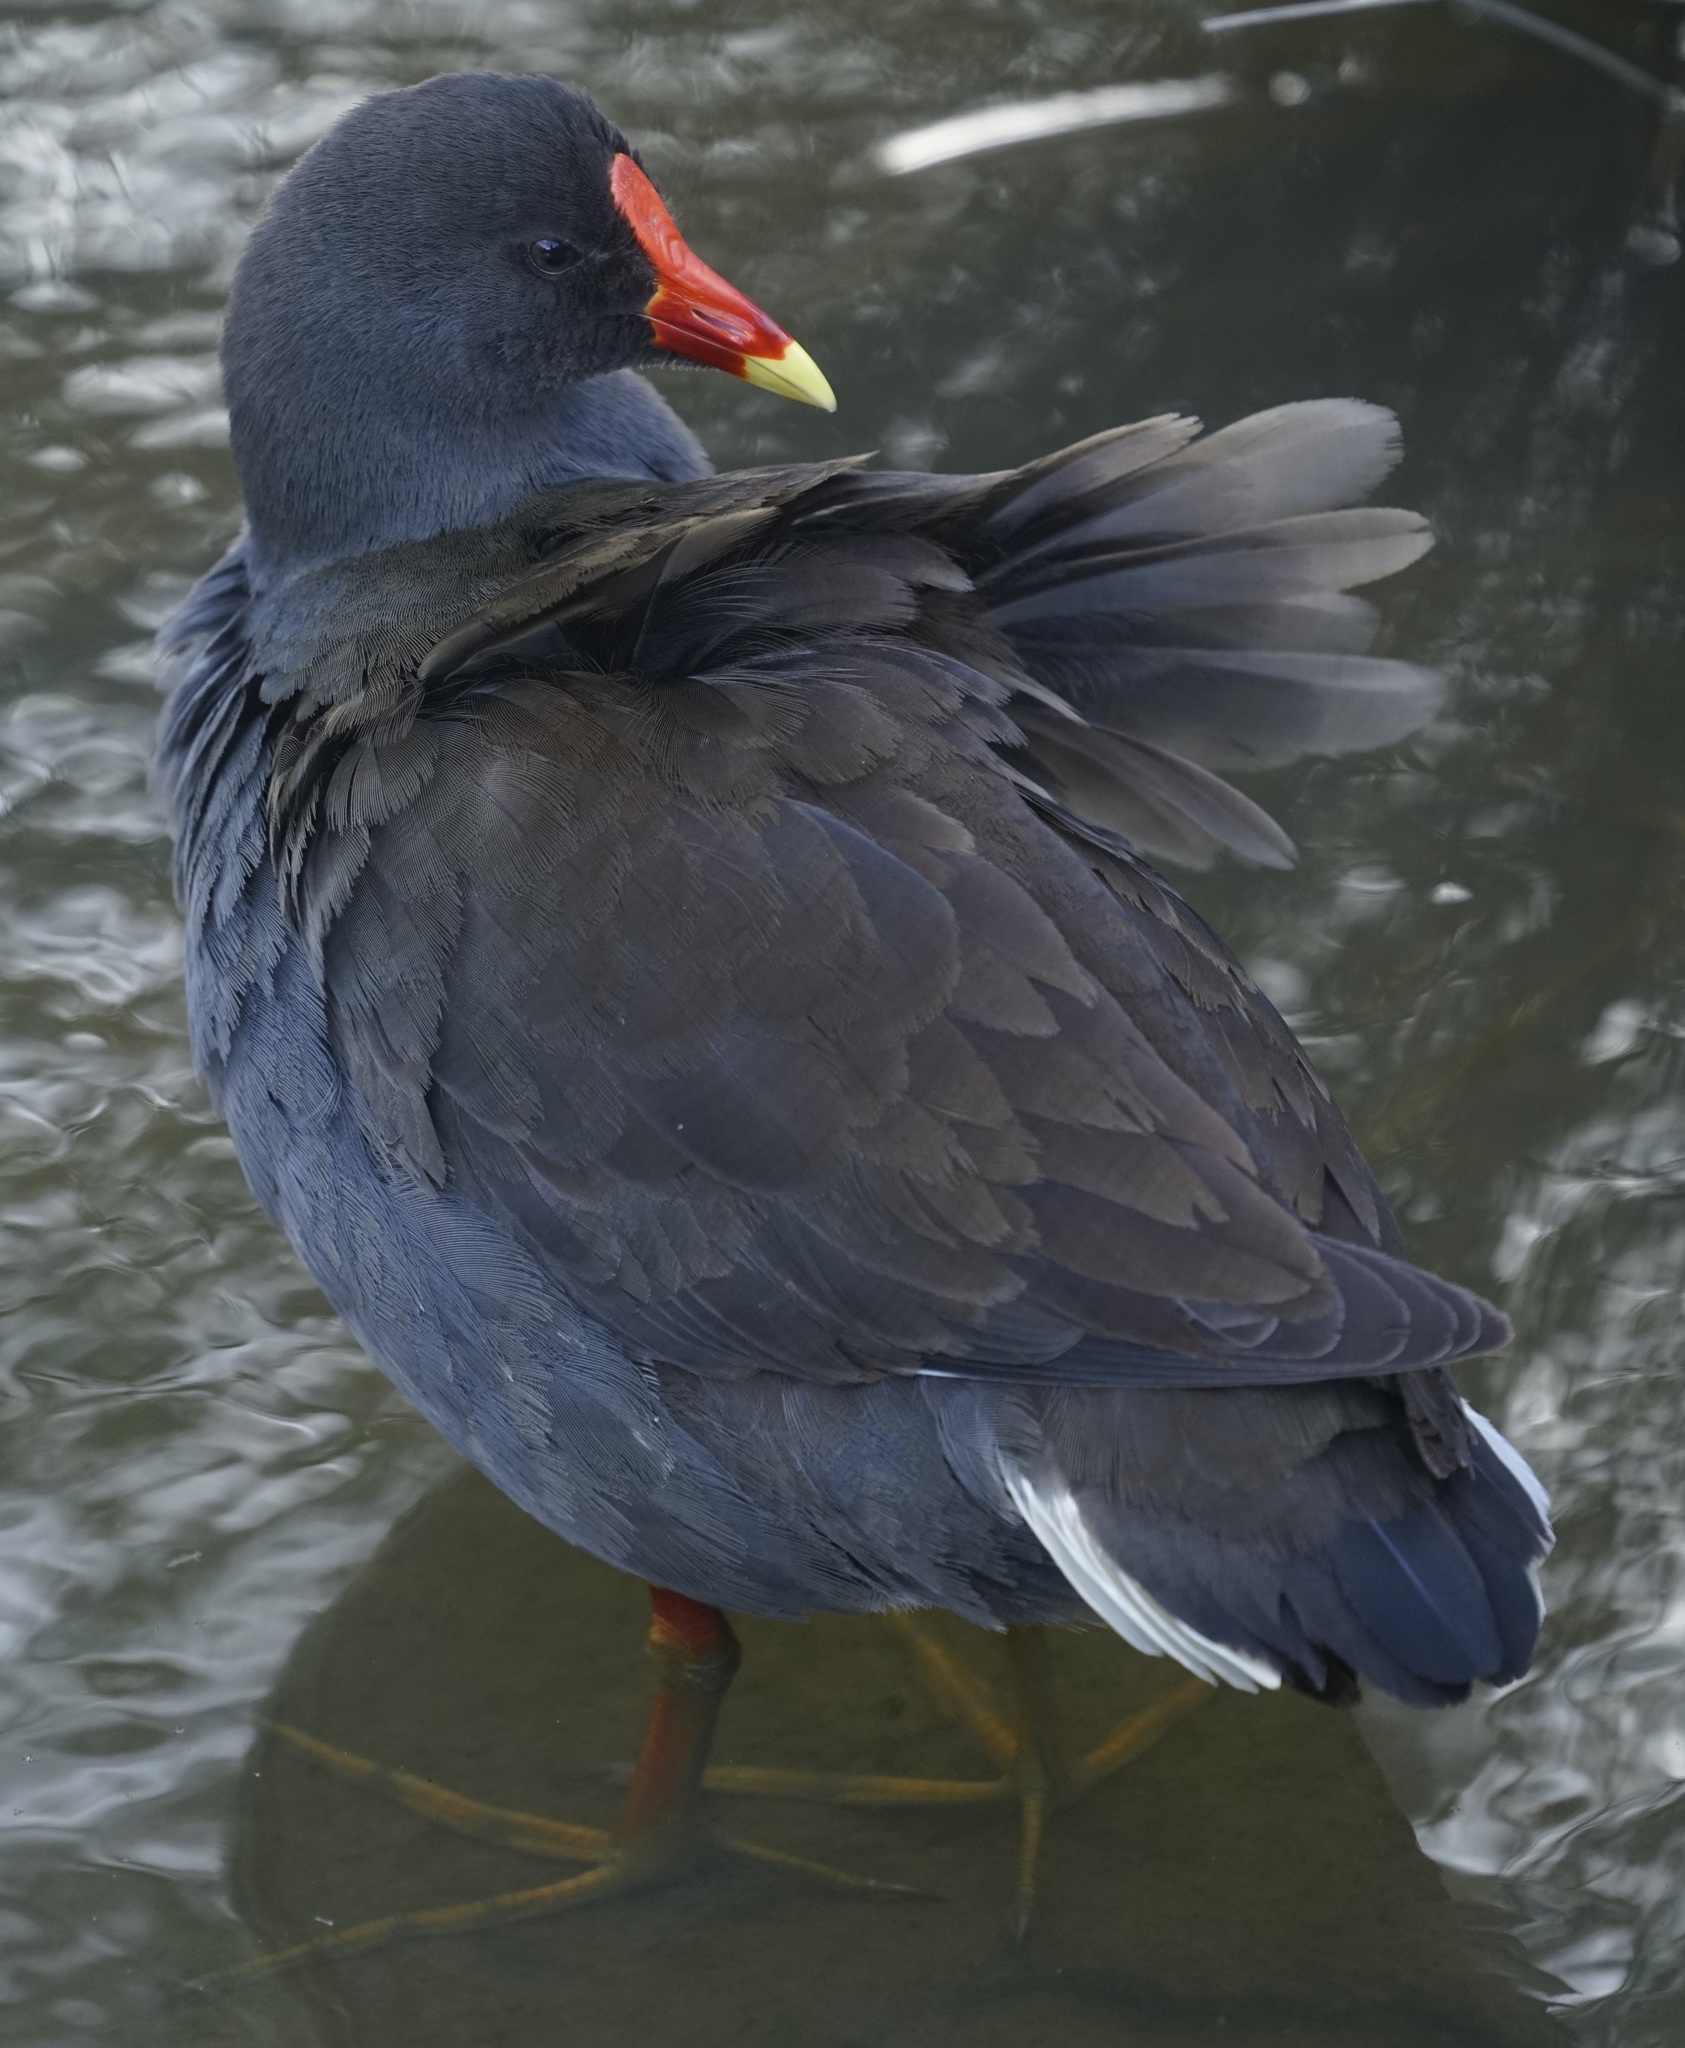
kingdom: Animalia
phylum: Chordata
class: Aves
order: Gruiformes
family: Rallidae
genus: Gallinula
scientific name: Gallinula tenebrosa
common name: Dusky moorhen
